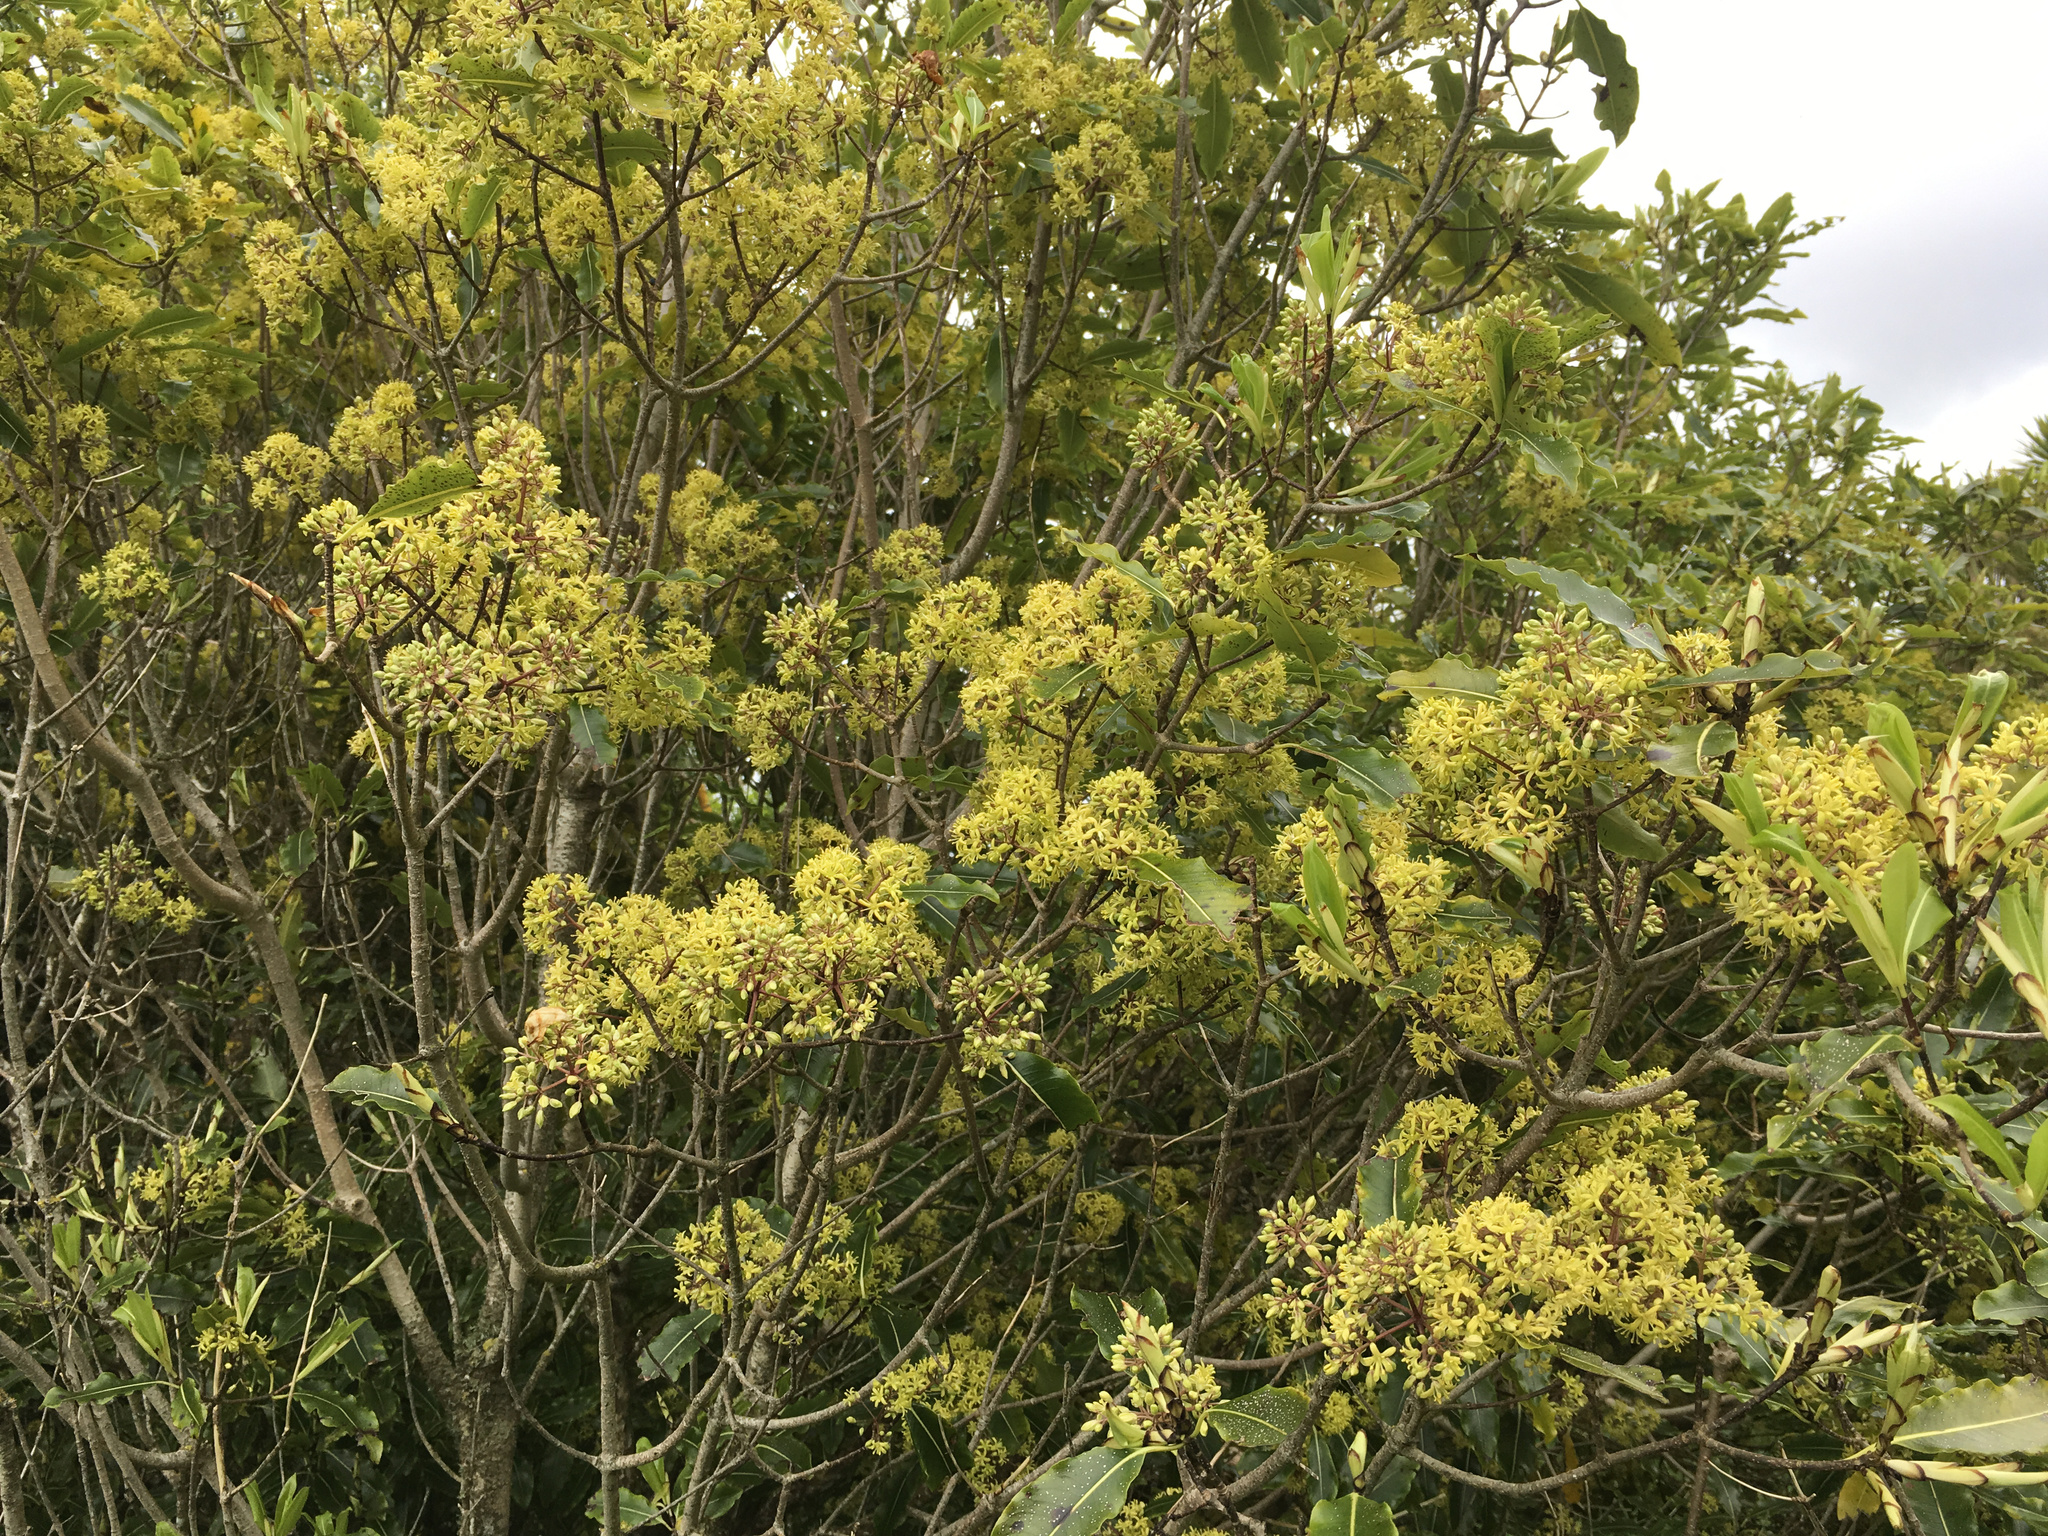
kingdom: Plantae
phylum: Tracheophyta
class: Magnoliopsida
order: Apiales
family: Pittosporaceae
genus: Pittosporum
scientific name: Pittosporum eugenioides
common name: Lemonwood
